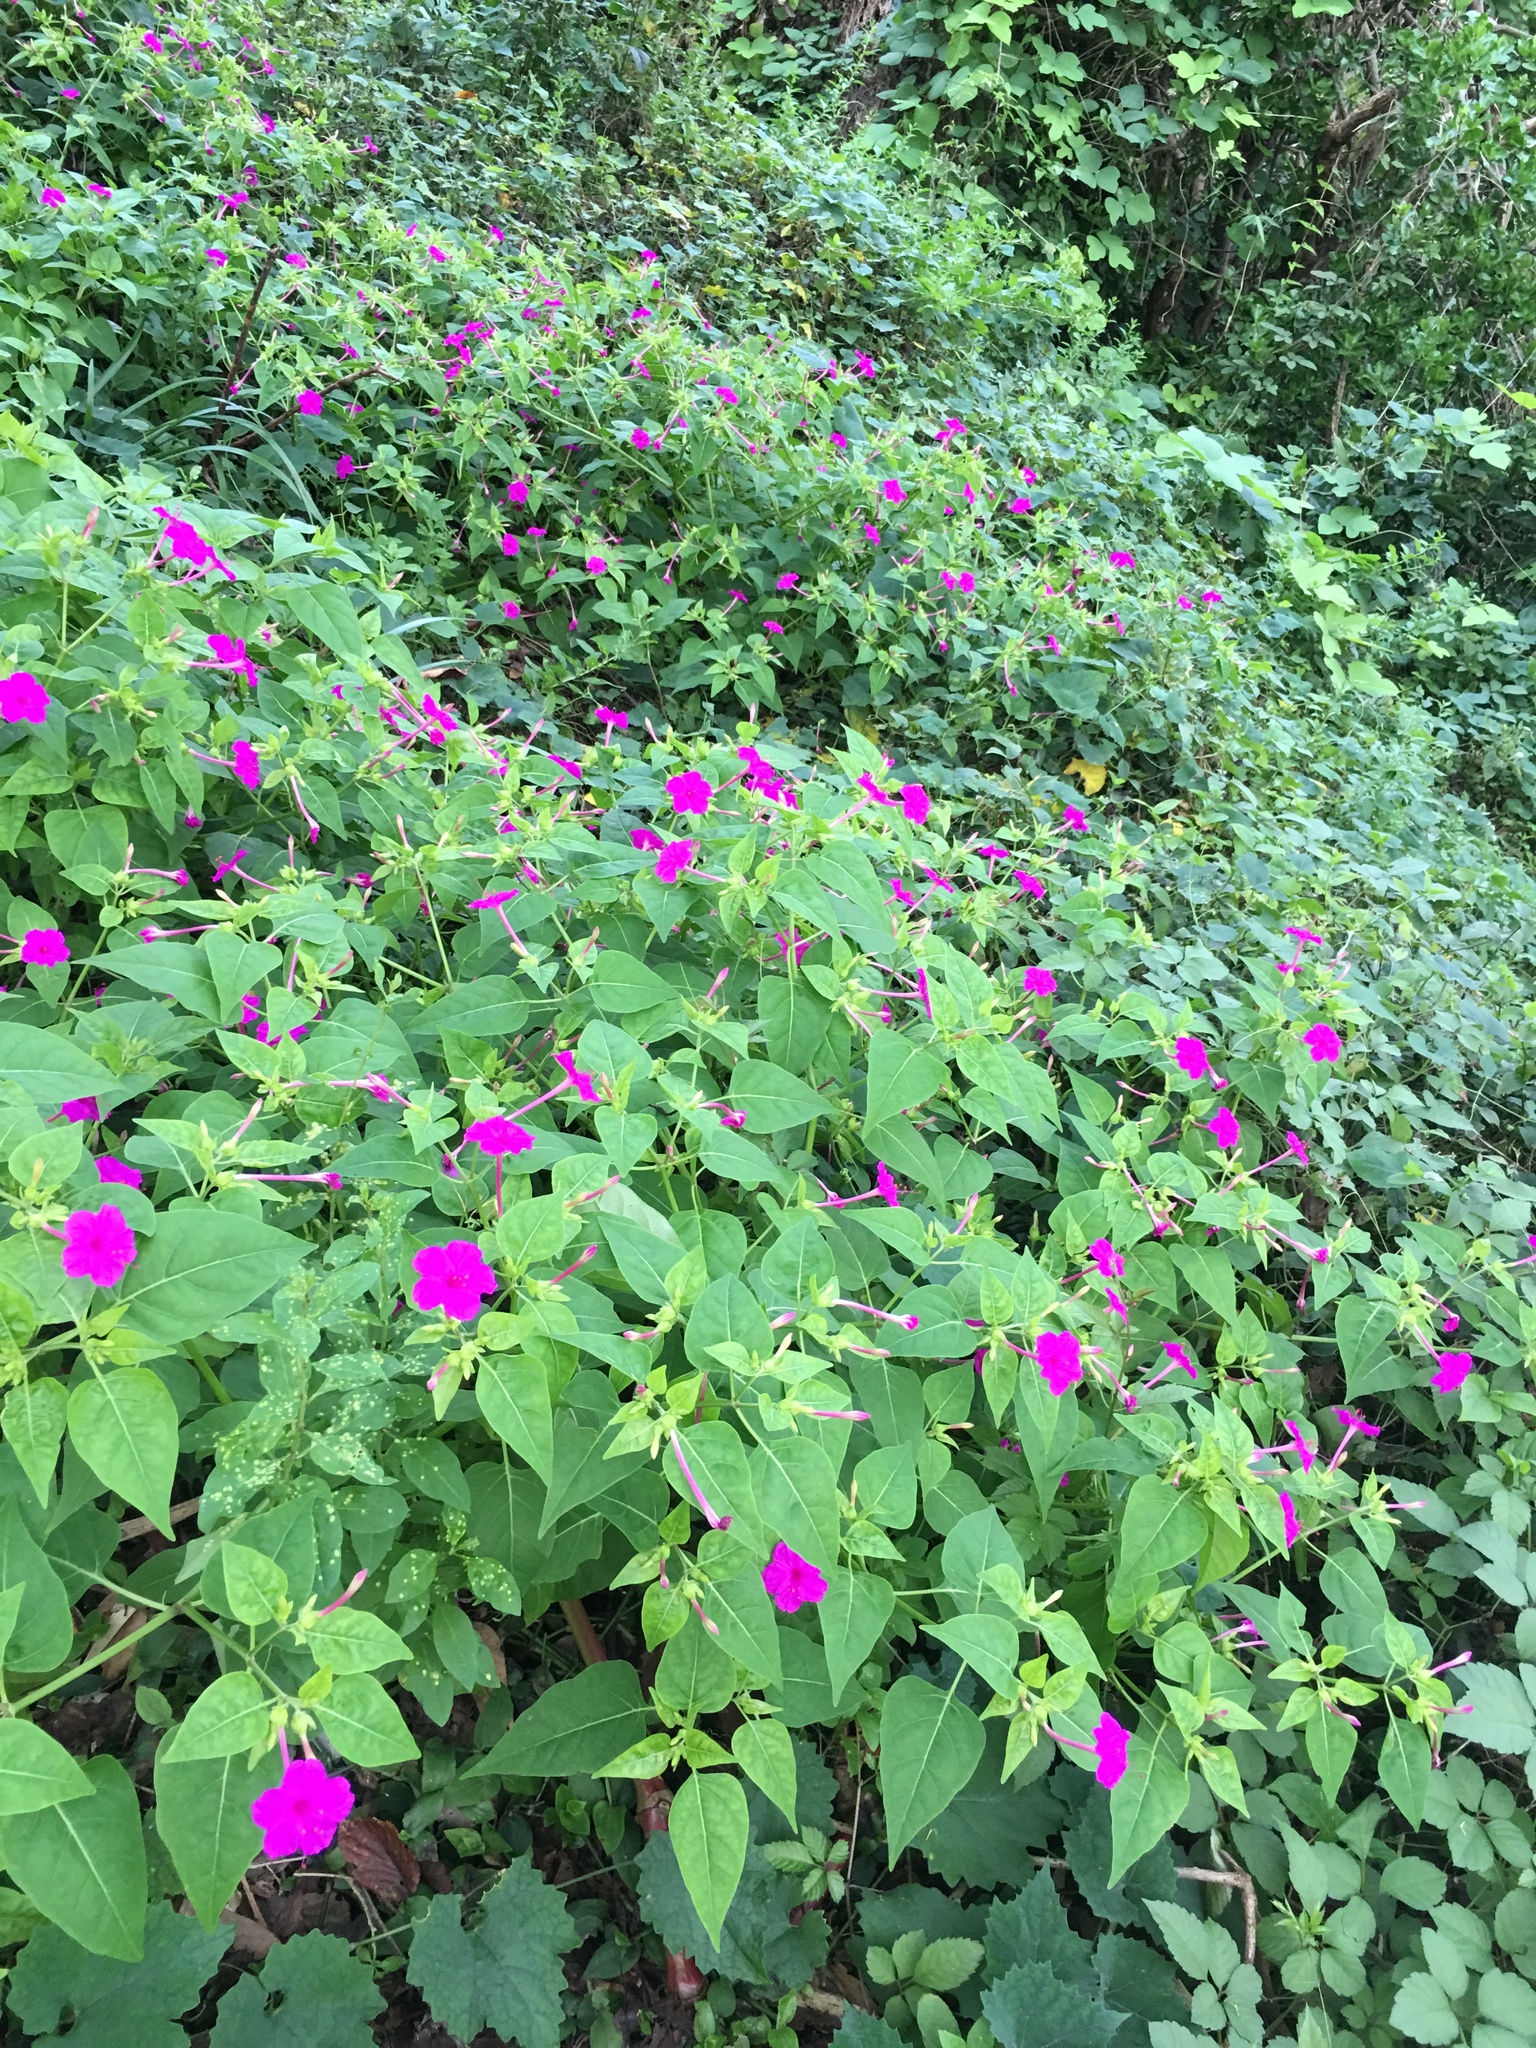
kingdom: Plantae
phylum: Tracheophyta
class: Magnoliopsida
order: Caryophyllales
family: Nyctaginaceae
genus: Mirabilis
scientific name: Mirabilis jalapa
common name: Marvel-of-peru
